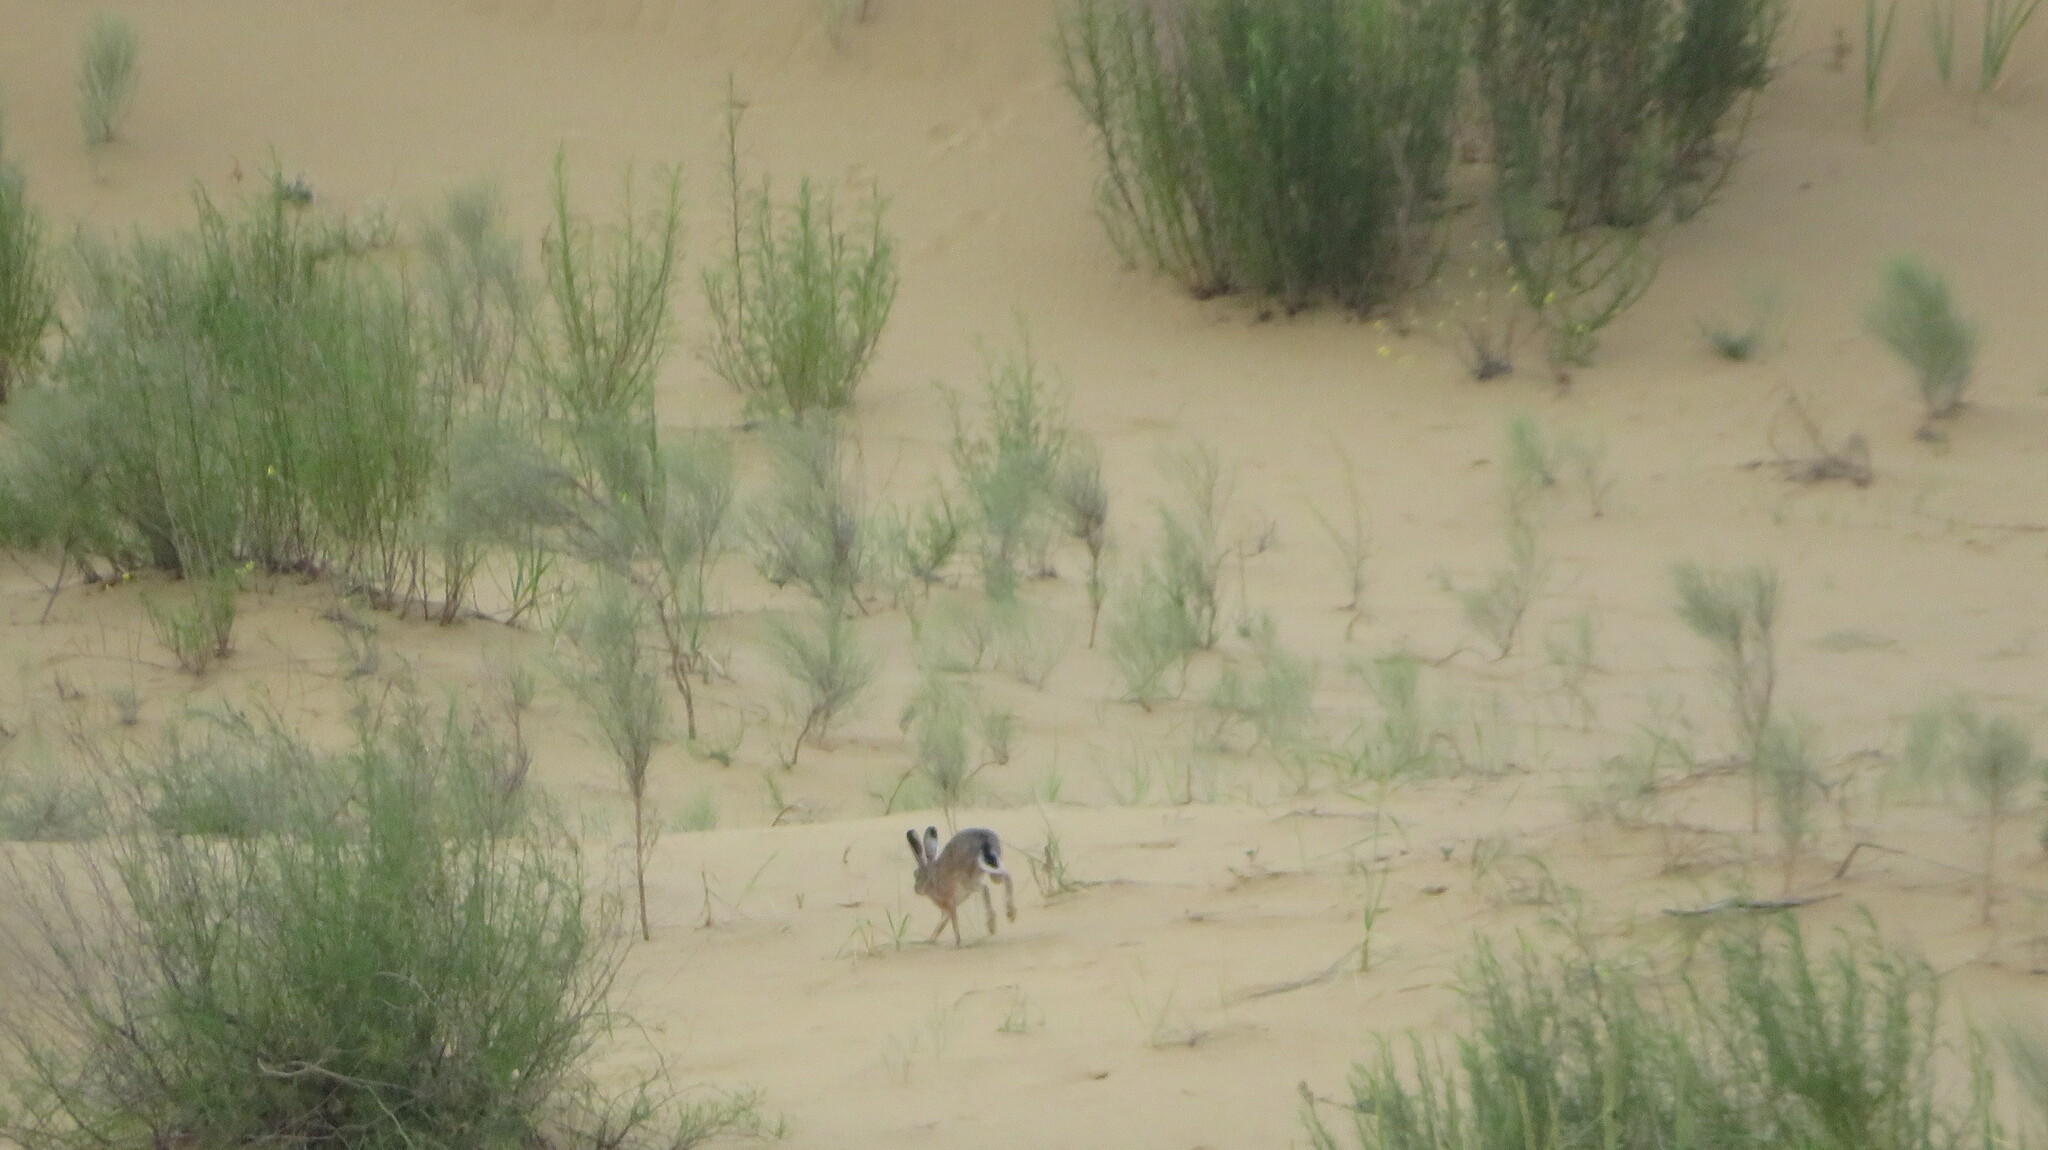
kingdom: Animalia
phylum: Chordata
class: Mammalia
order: Lagomorpha
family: Leporidae
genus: Lepus
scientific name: Lepus europaeus
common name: European hare
